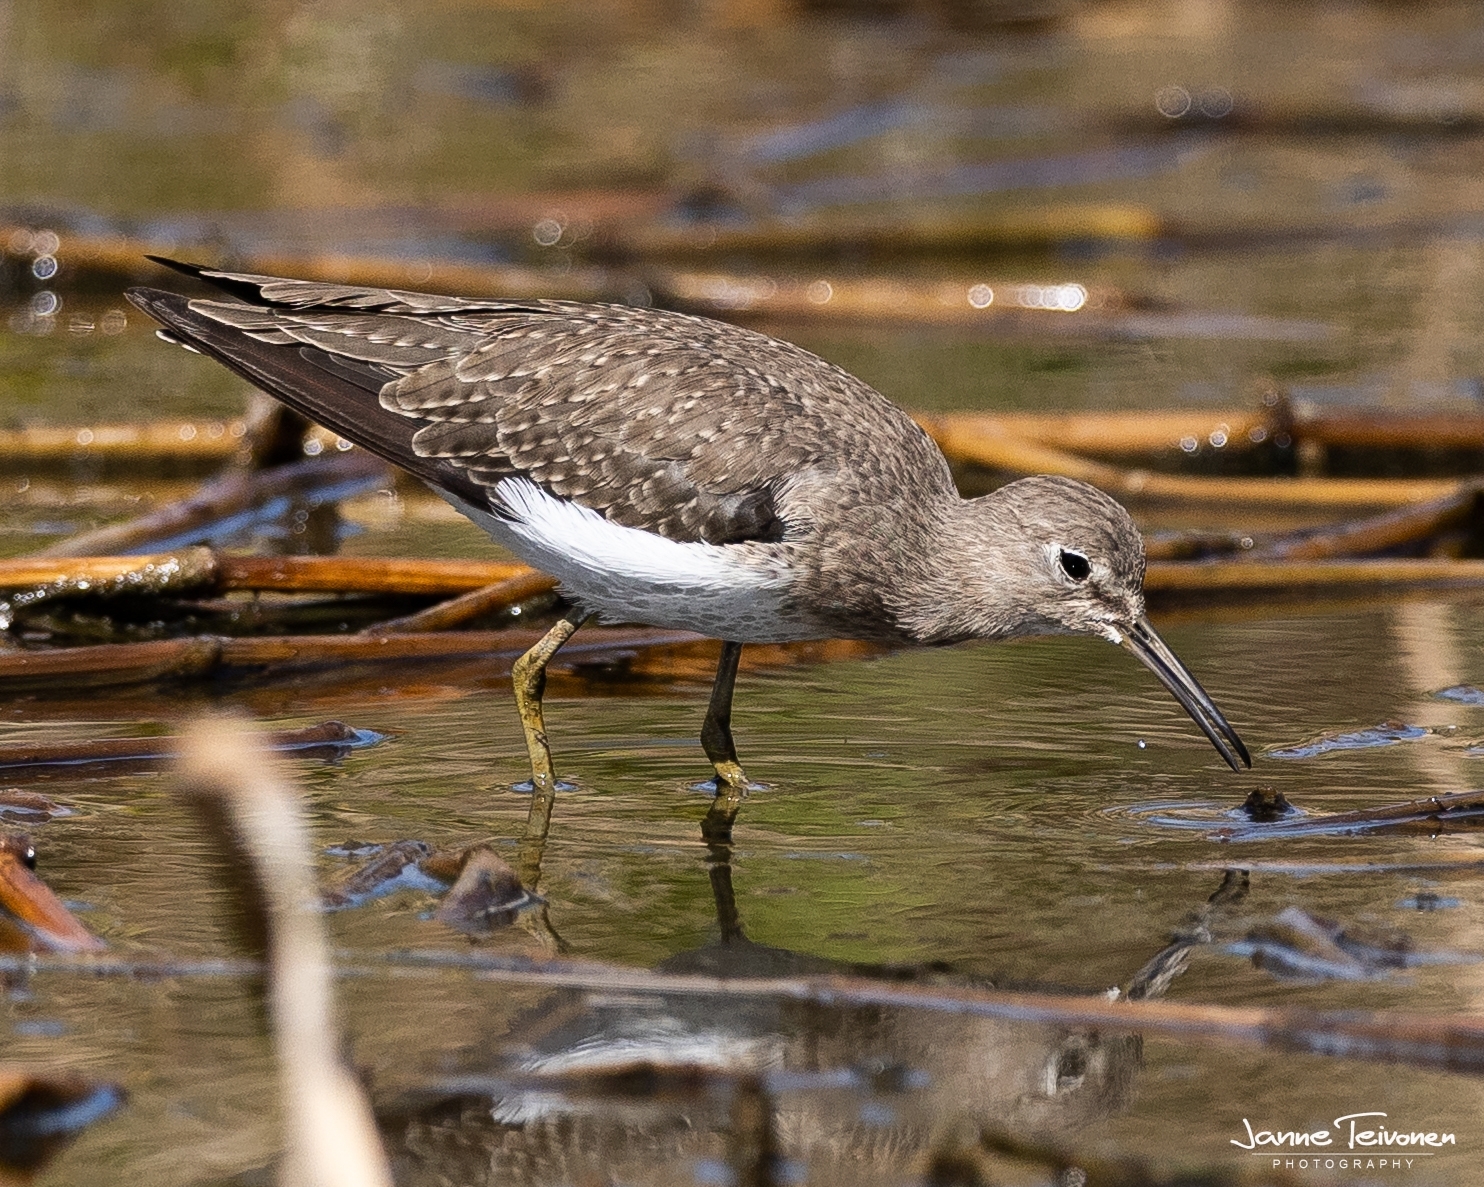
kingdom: Animalia
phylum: Chordata
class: Aves
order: Charadriiformes
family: Scolopacidae
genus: Tringa
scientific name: Tringa solitaria
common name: Solitary sandpiper
